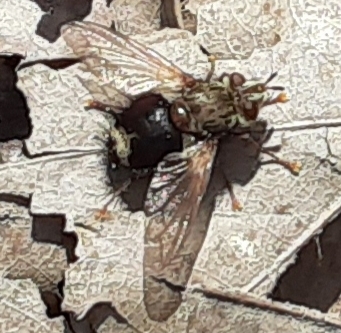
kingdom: Animalia
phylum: Arthropoda
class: Insecta
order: Diptera
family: Tachinidae
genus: Epalpus
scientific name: Epalpus signifer
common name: Early tachinid fly
